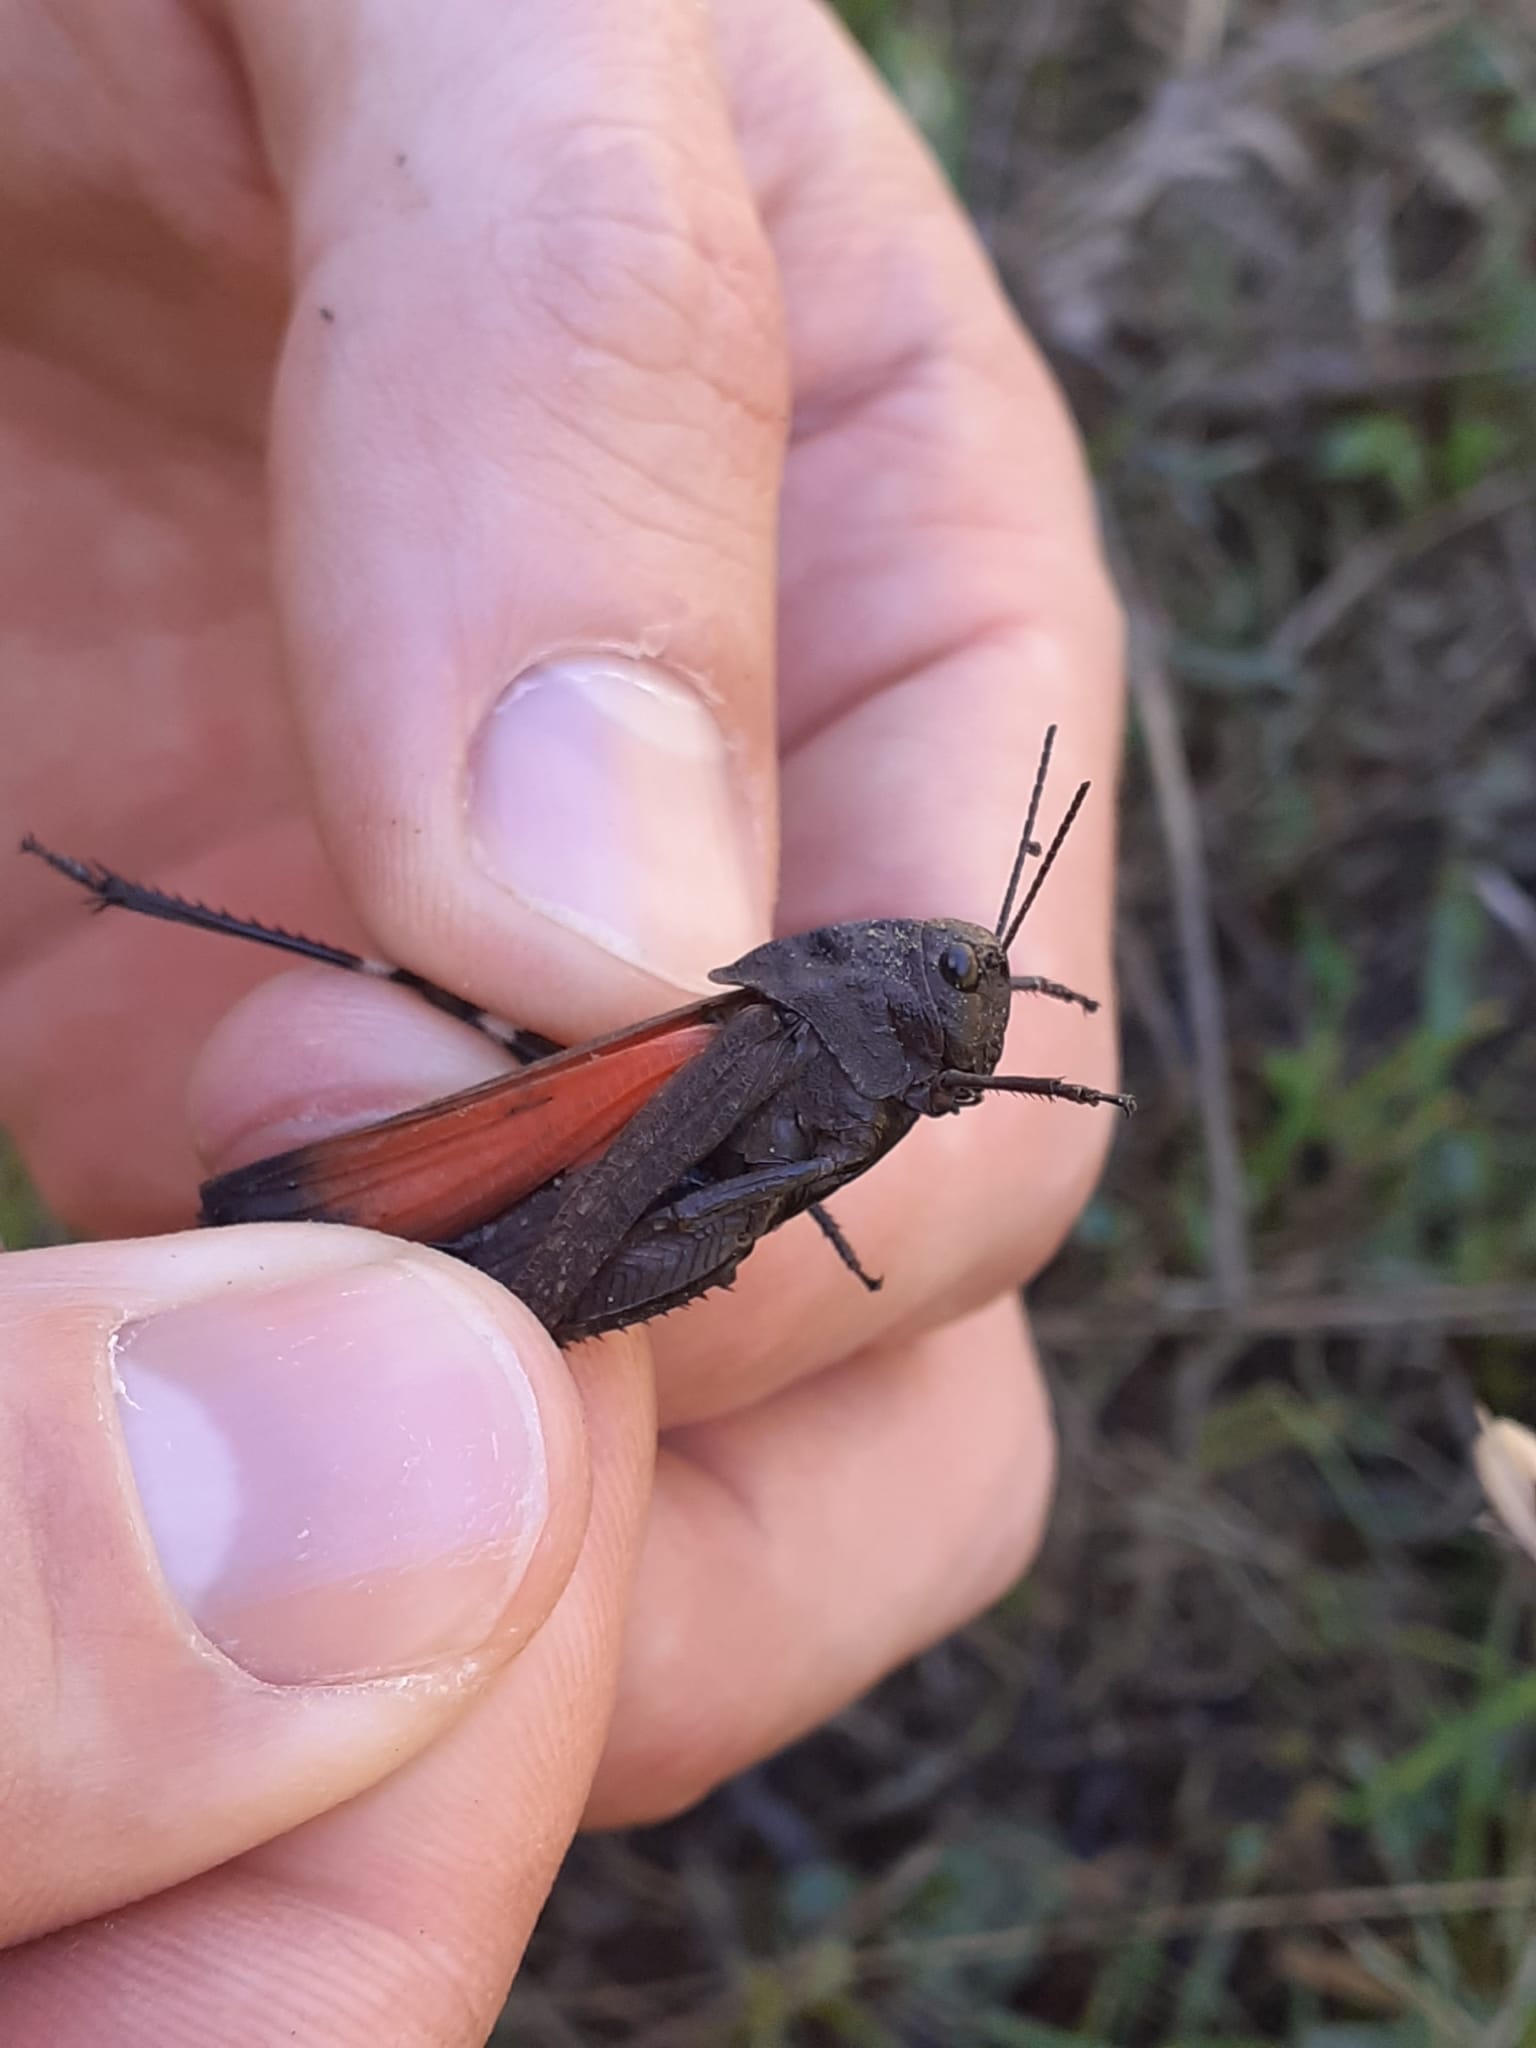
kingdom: Animalia
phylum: Arthropoda
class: Insecta
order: Orthoptera
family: Acrididae
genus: Psophus
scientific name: Psophus stridulus
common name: Rattle grasshopper
